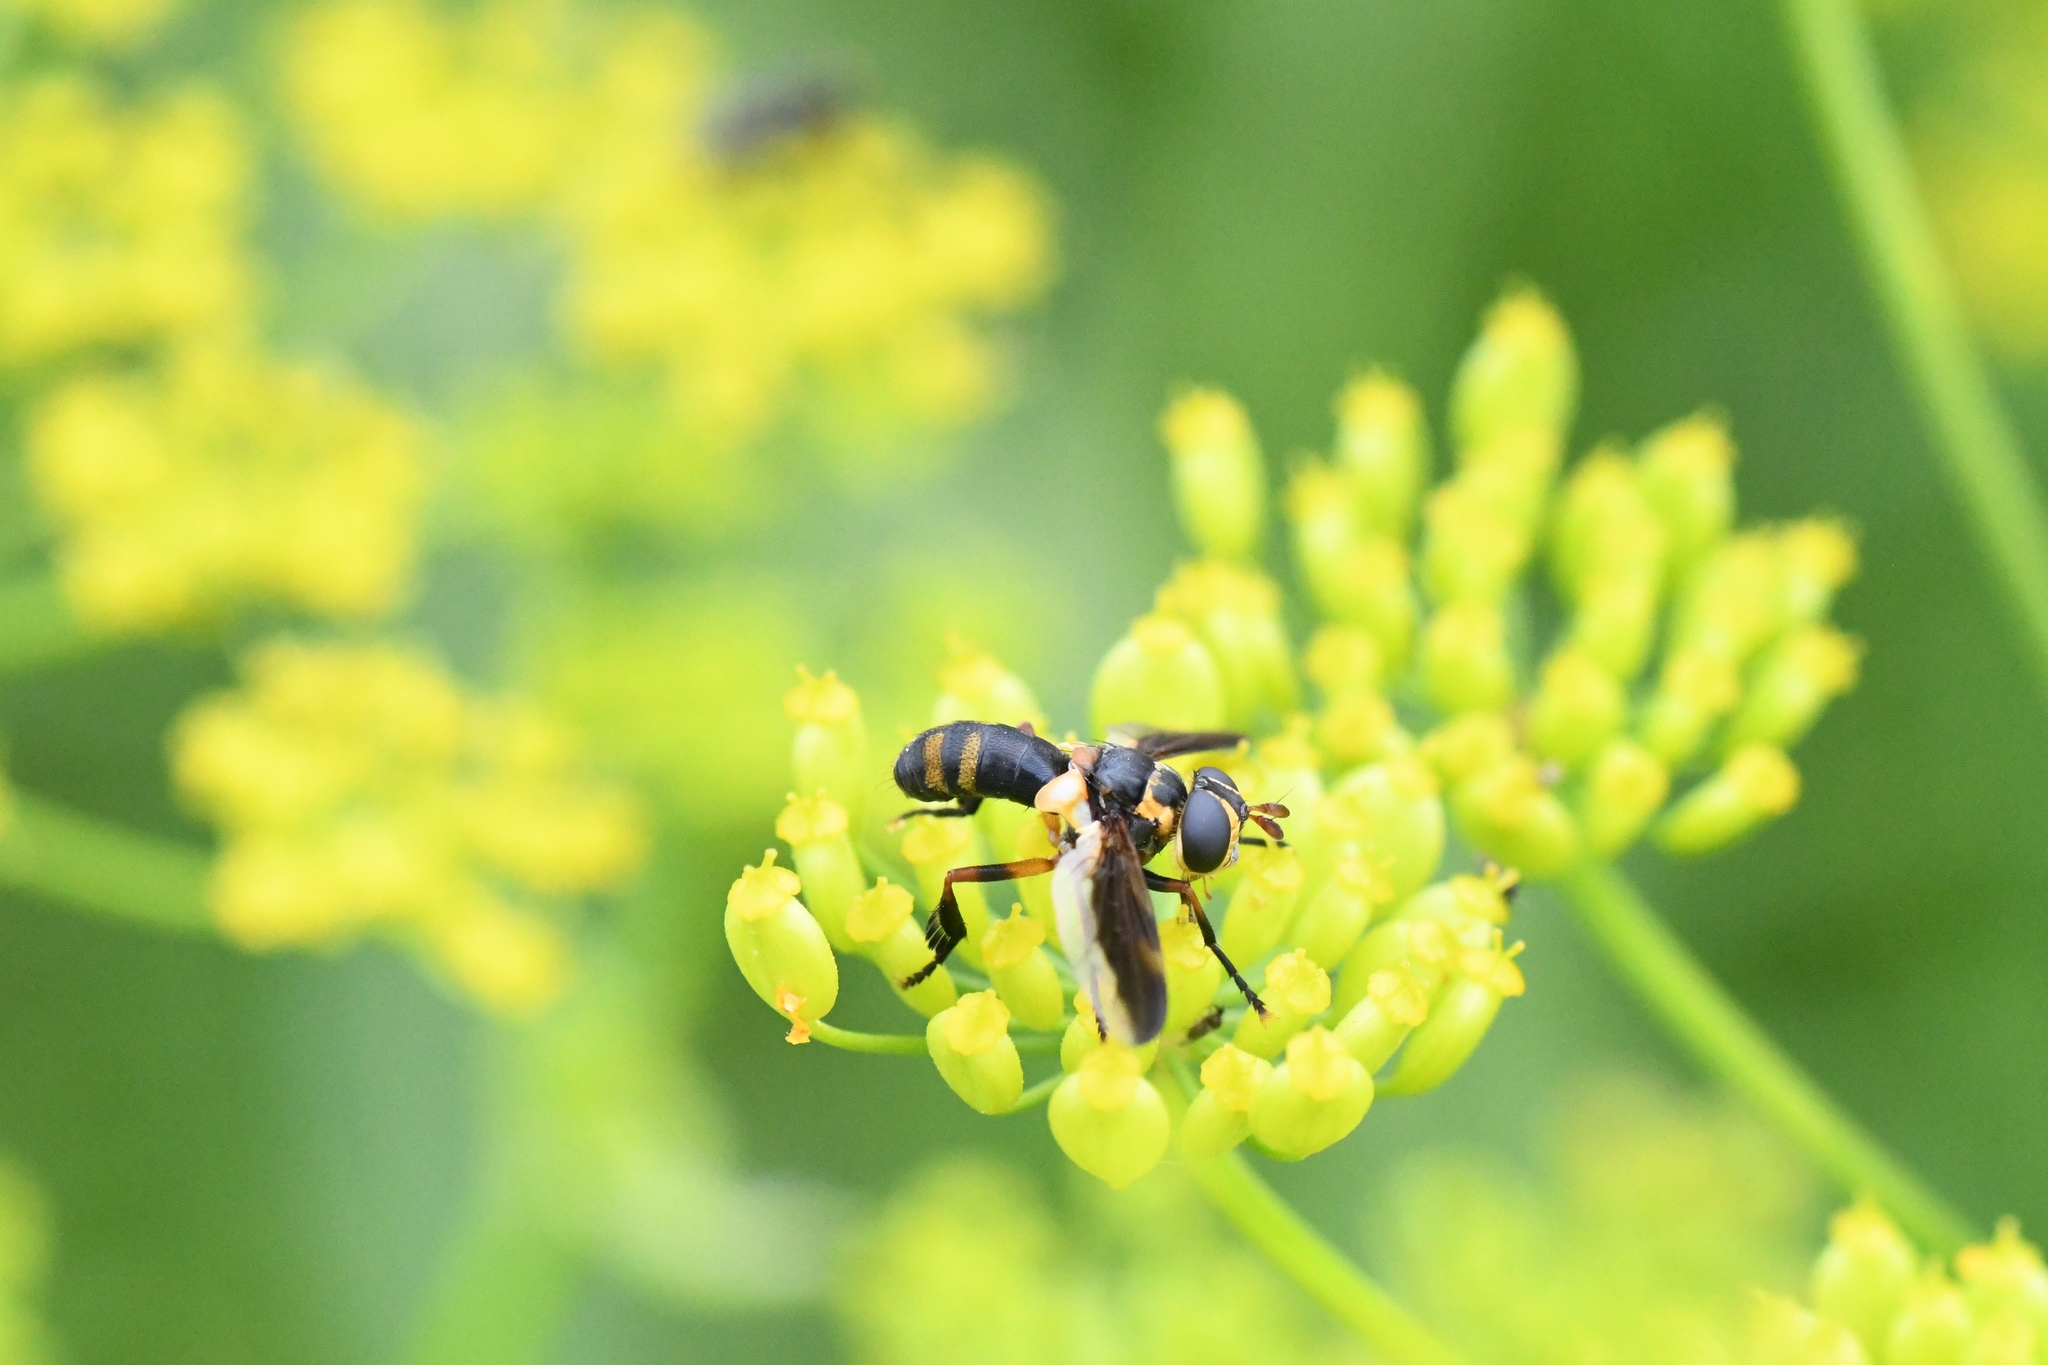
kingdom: Animalia
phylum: Arthropoda
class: Insecta
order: Diptera
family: Tachinidae
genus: Trichopoda
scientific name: Trichopoda plumipes
